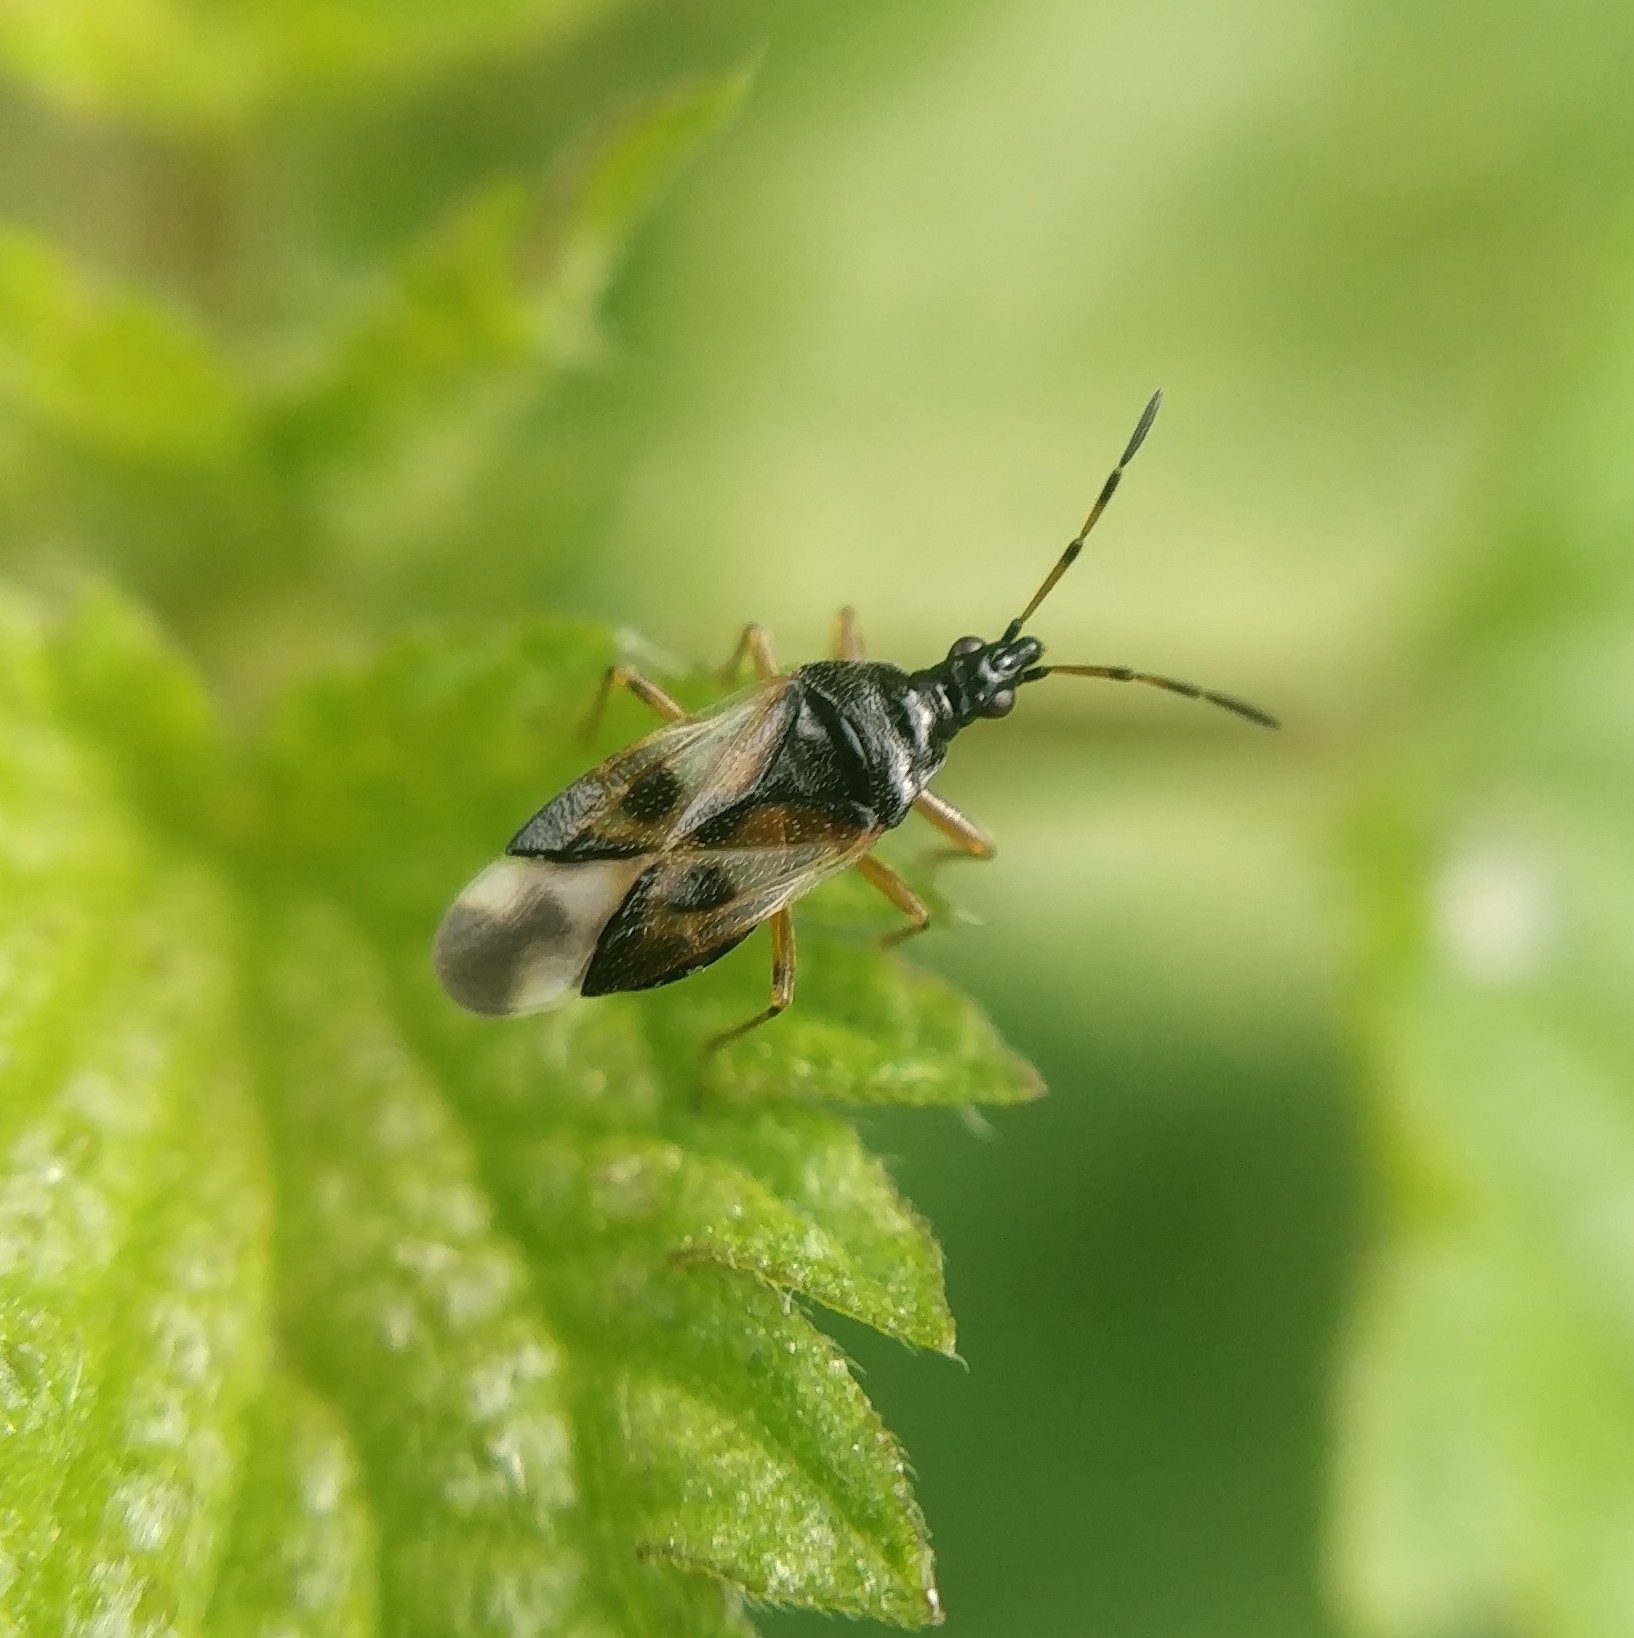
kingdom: Animalia
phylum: Arthropoda
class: Insecta
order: Hemiptera
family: Anthocoridae
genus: Anthocoris
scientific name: Anthocoris nemorum
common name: Minute pirate bug
